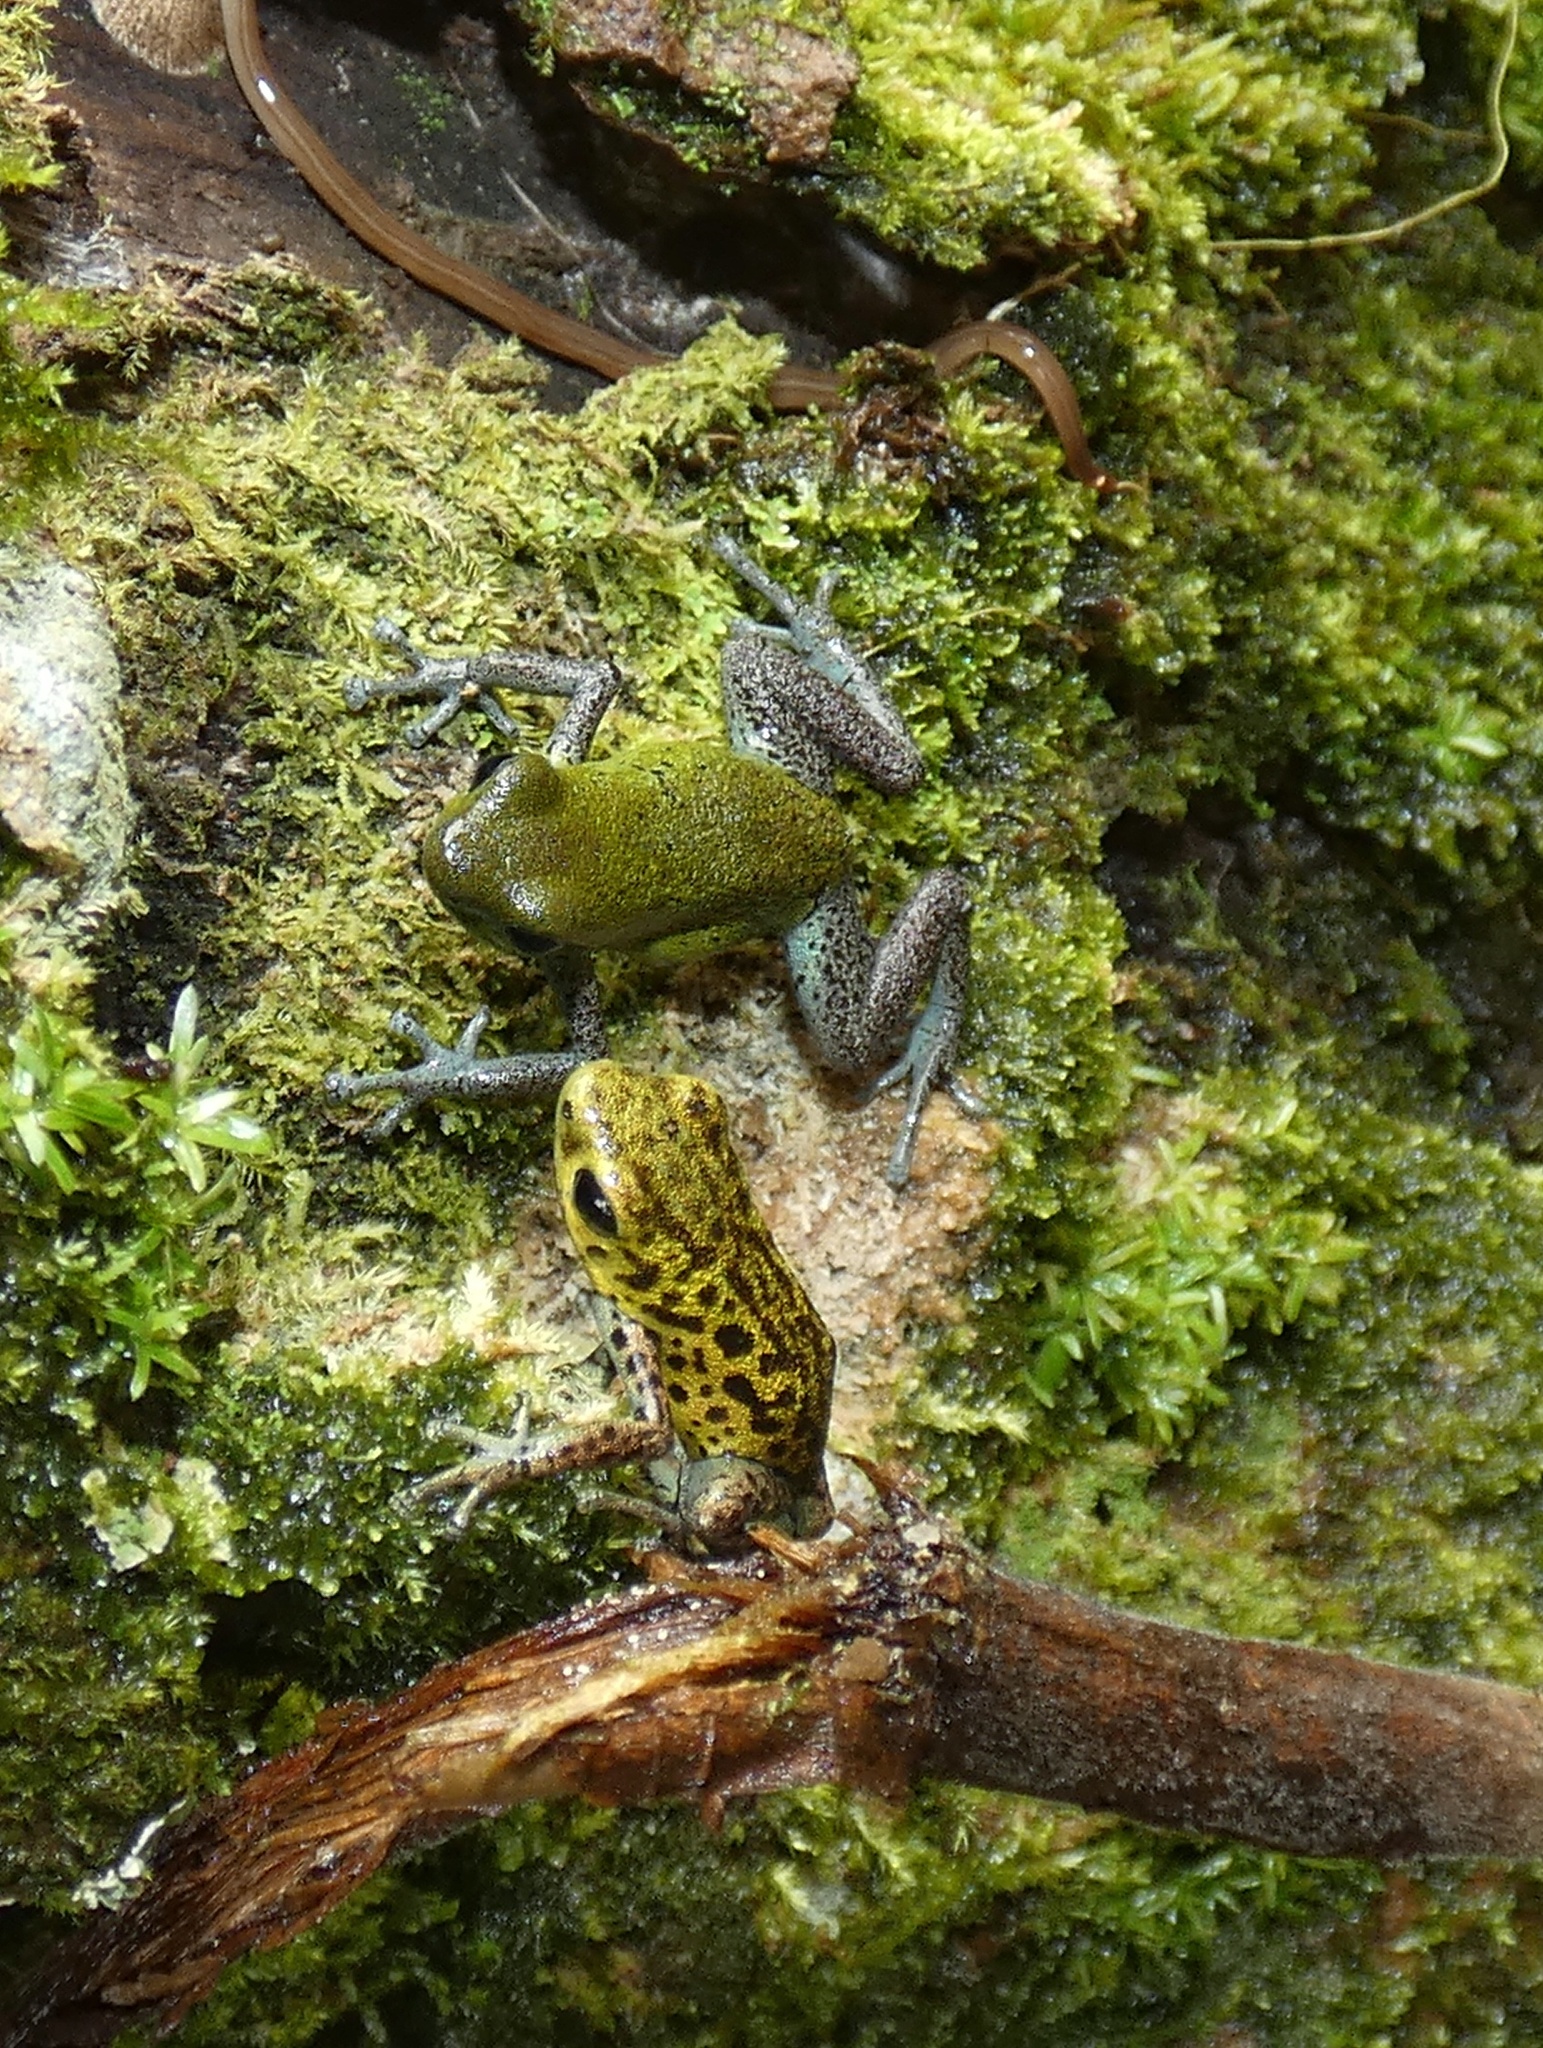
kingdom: Animalia
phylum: Chordata
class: Amphibia
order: Anura
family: Dendrobatidae
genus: Oophaga
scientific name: Oophaga pumilio
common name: Flaming poison frog
